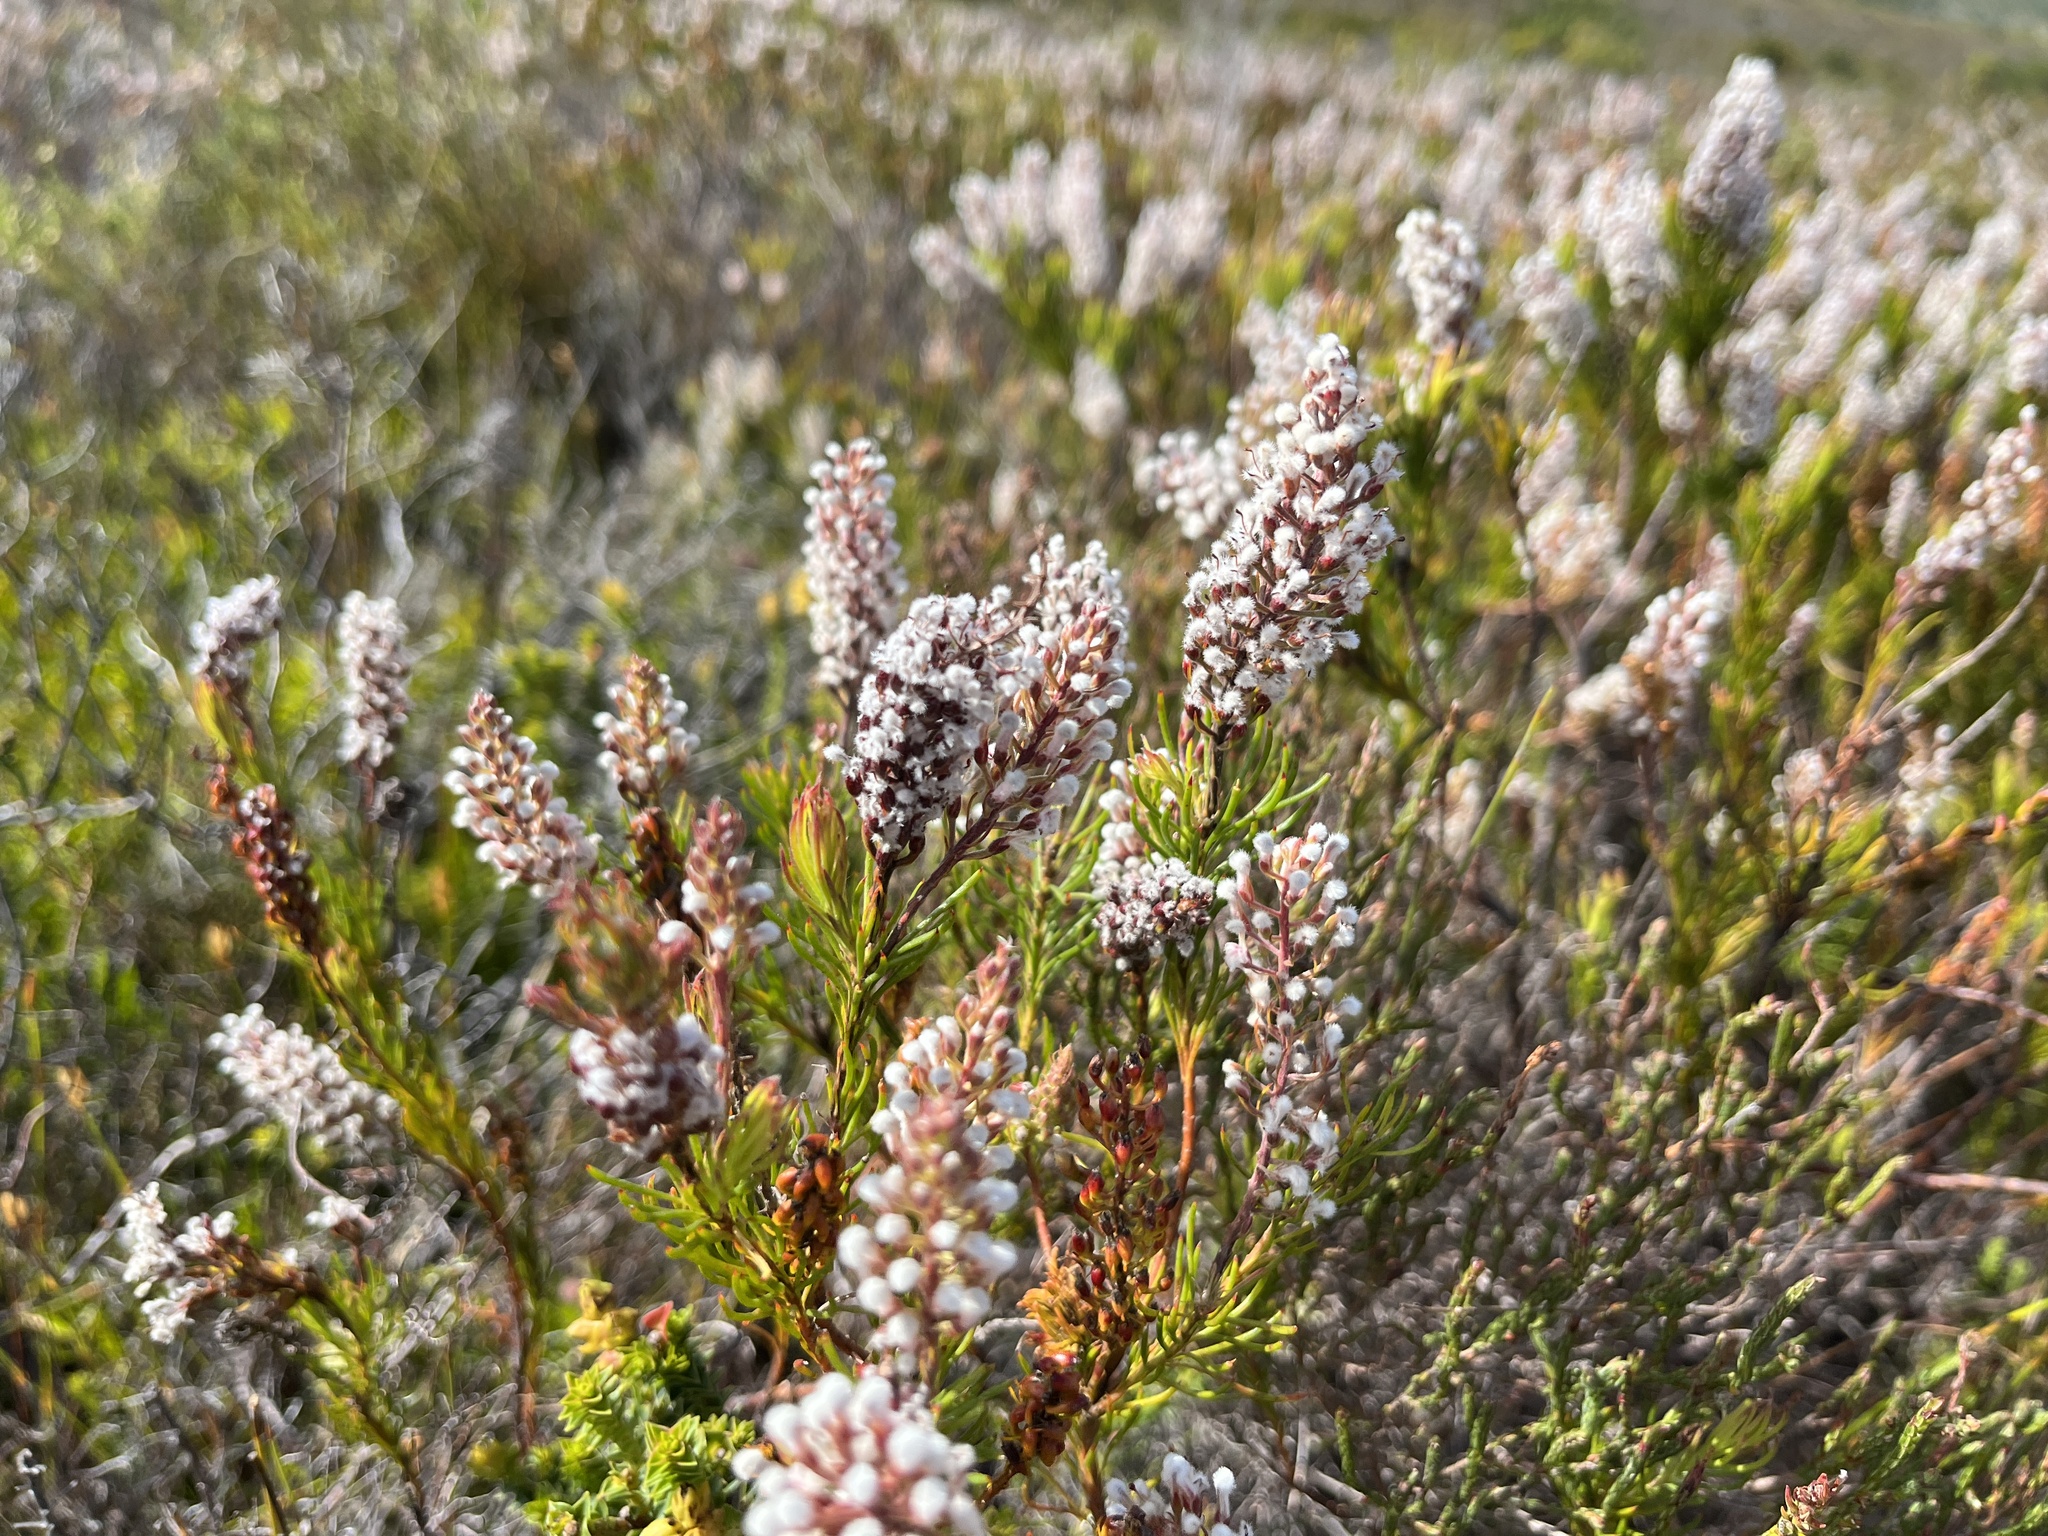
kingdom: Plantae
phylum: Tracheophyta
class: Magnoliopsida
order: Proteales
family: Proteaceae
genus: Spatalla
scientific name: Spatalla curvifolia
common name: White-stalked spoon
